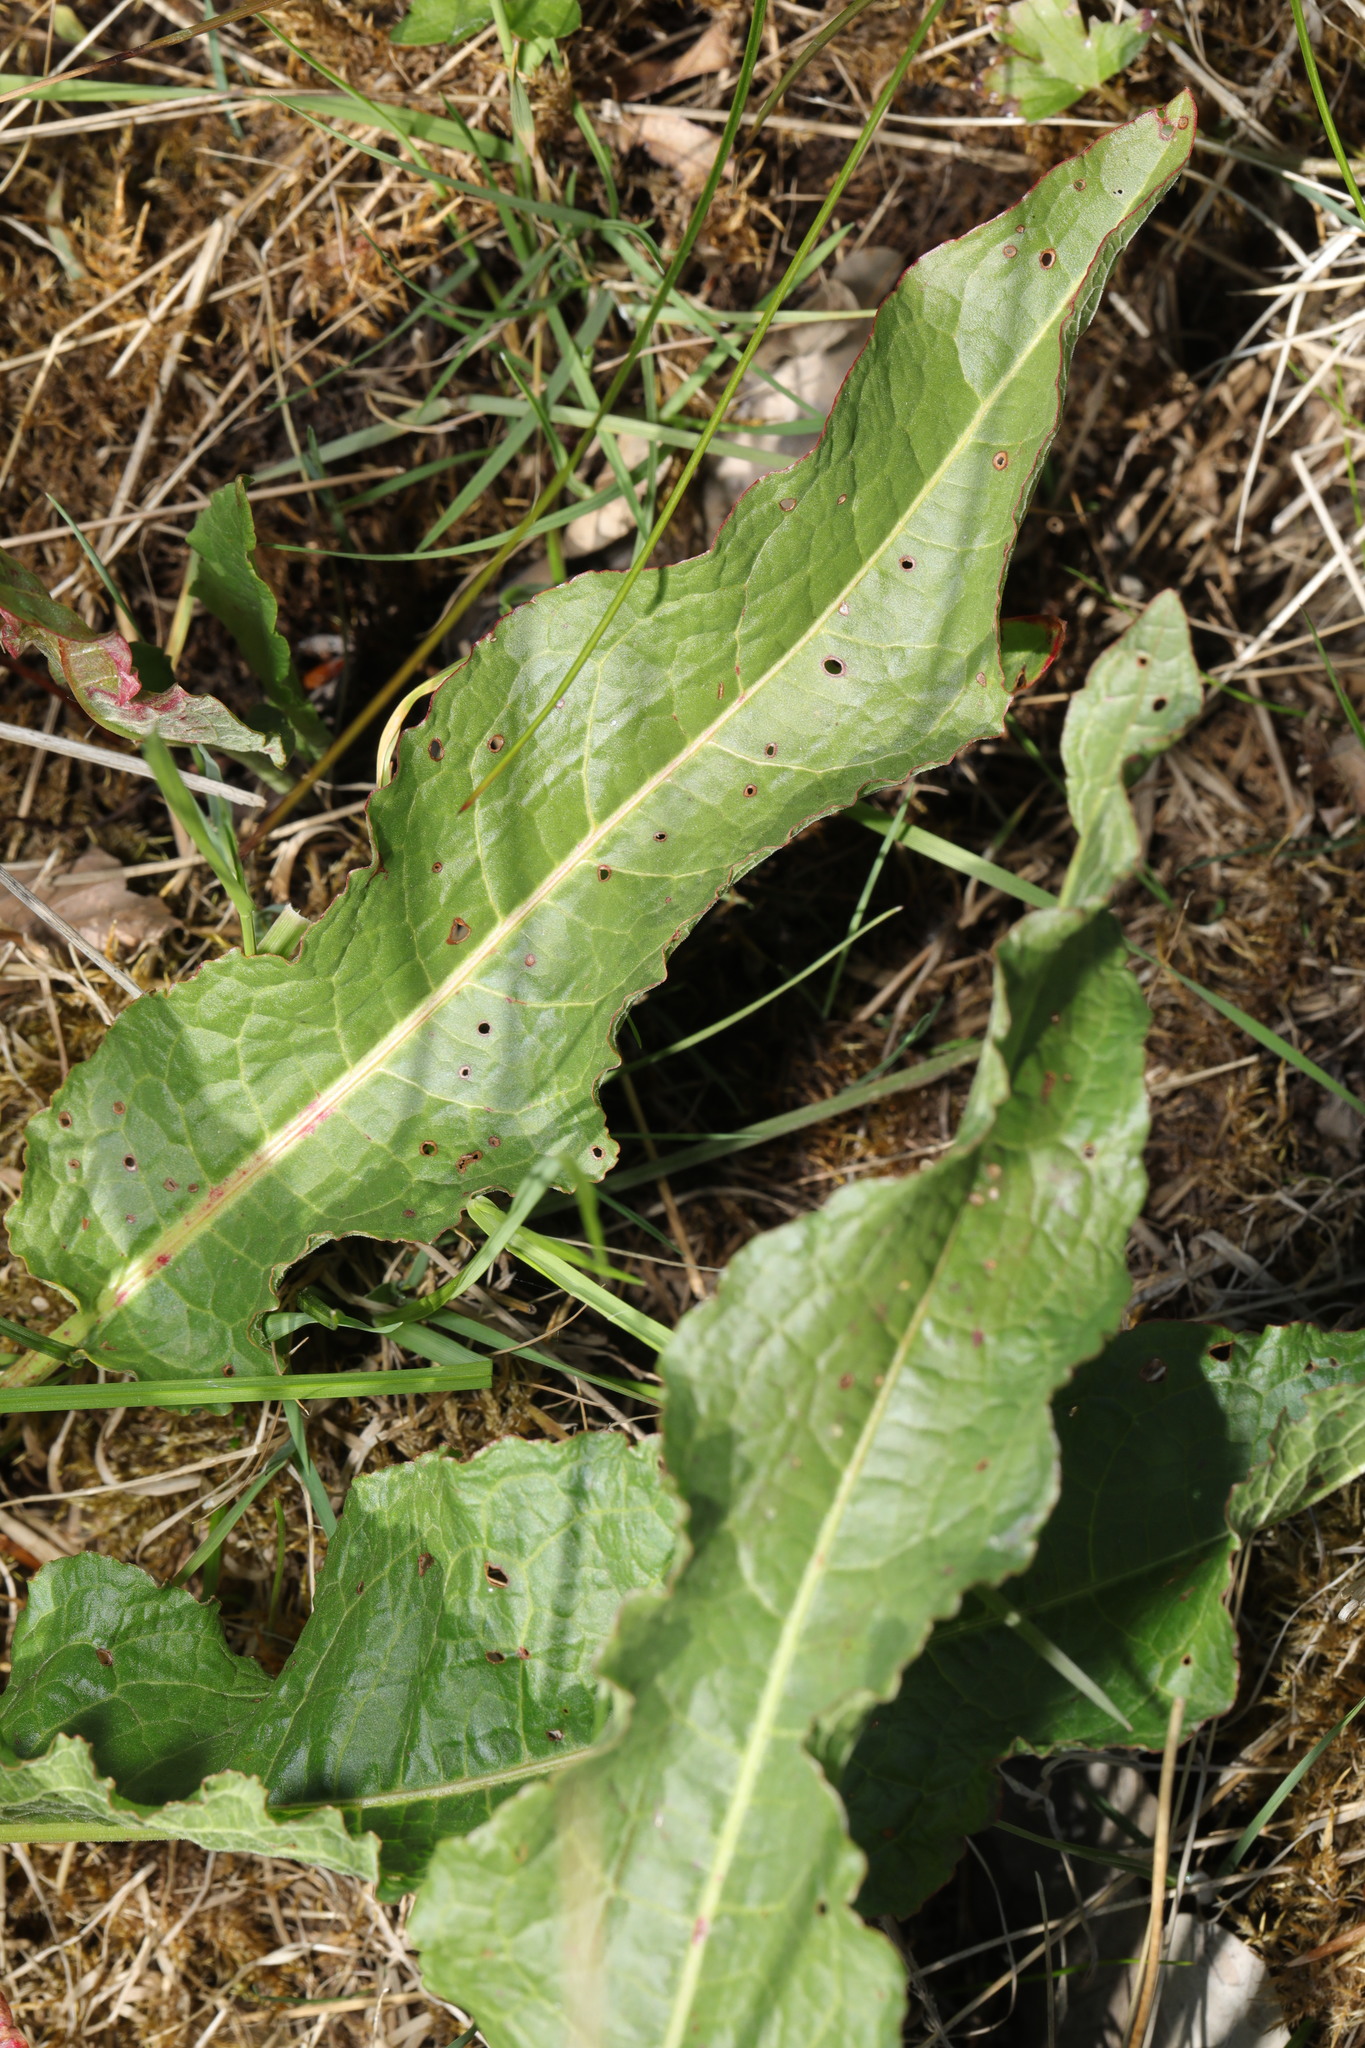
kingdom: Plantae
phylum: Tracheophyta
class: Magnoliopsida
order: Caryophyllales
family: Polygonaceae
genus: Rumex
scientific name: Rumex crispus
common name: Curled dock
